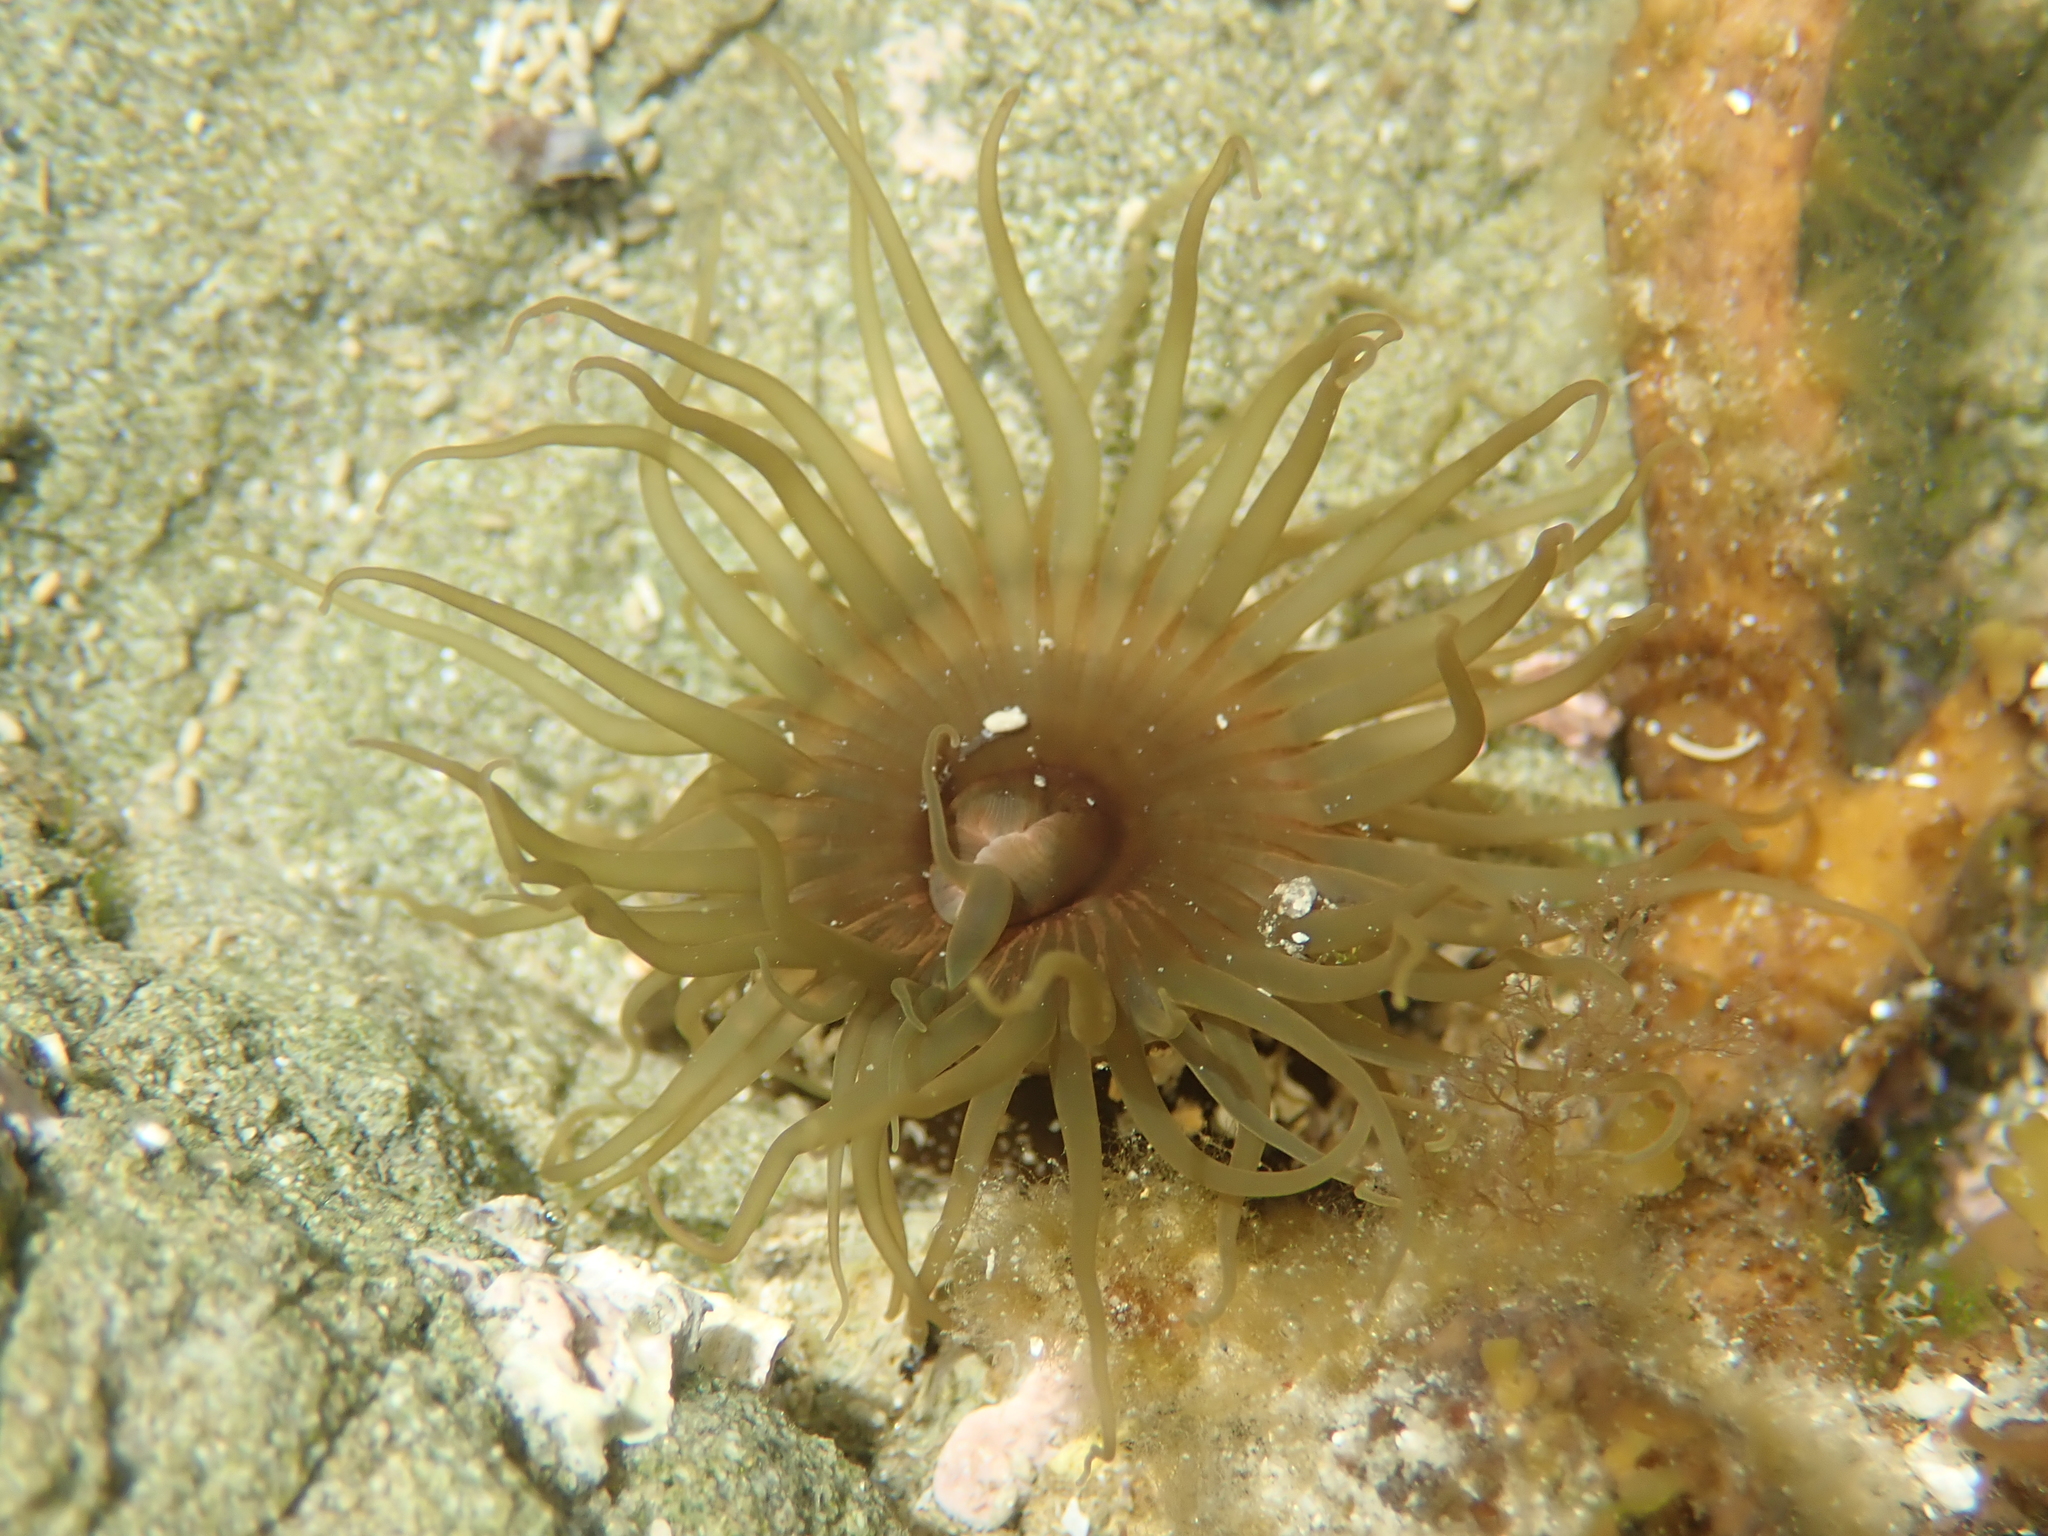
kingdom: Animalia
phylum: Cnidaria
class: Anthozoa
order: Actiniaria
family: Actiniidae
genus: Isactinia
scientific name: Isactinia olivacea
